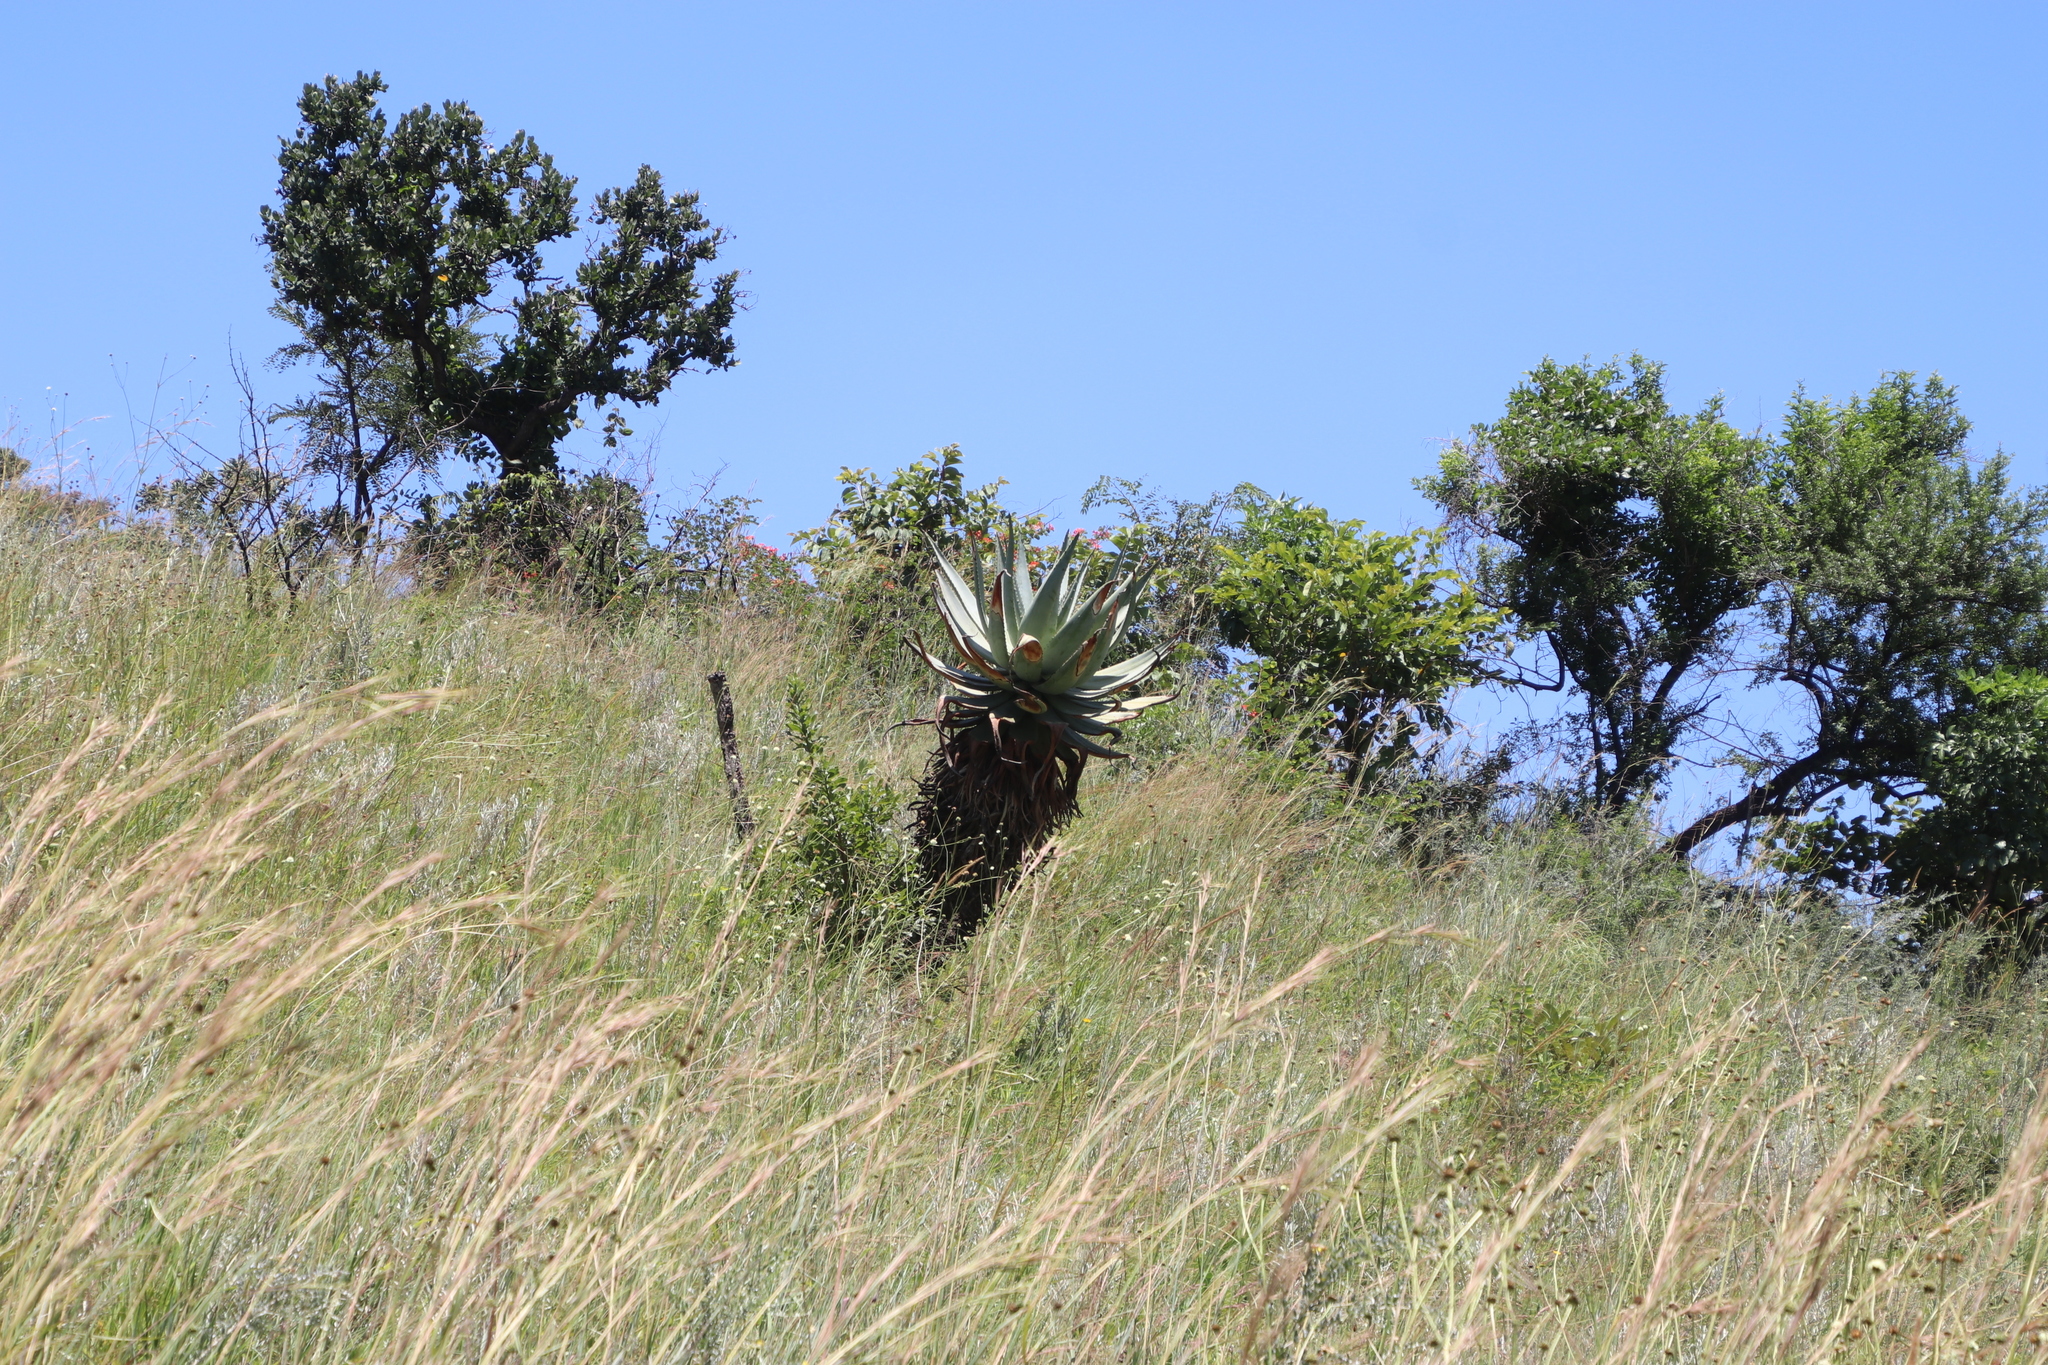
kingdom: Plantae
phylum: Tracheophyta
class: Liliopsida
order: Asparagales
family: Asphodelaceae
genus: Aloe
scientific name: Aloe marlothii
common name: Flat-flowered aloe
